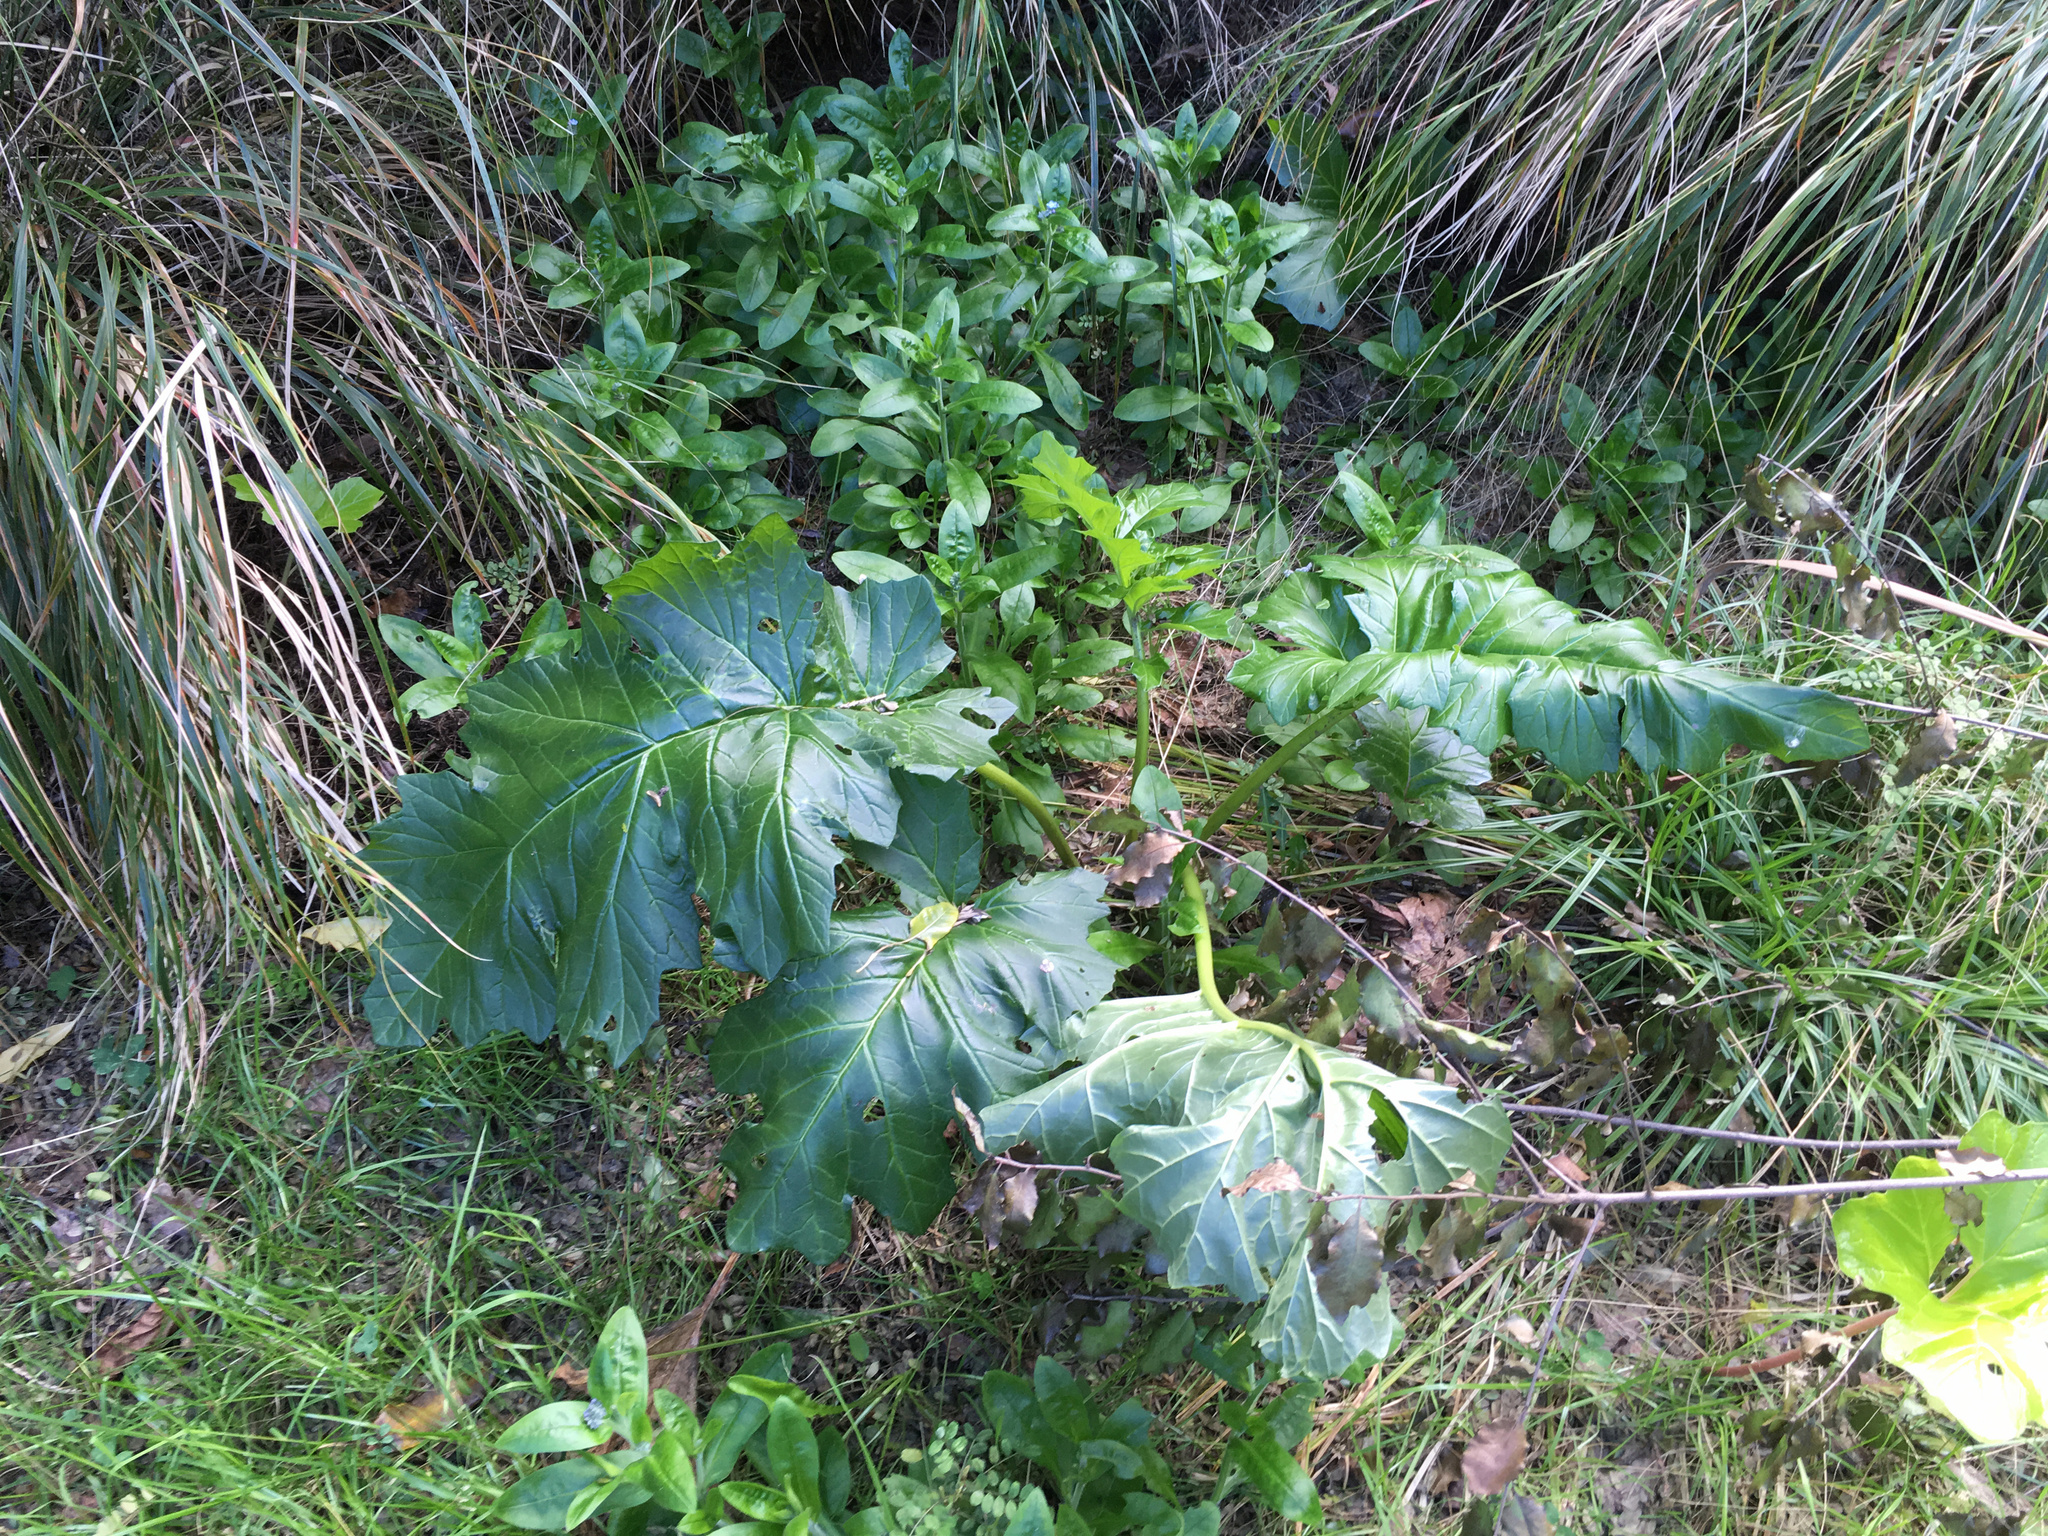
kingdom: Plantae
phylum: Tracheophyta
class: Magnoliopsida
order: Lamiales
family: Acanthaceae
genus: Acanthus
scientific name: Acanthus mollis
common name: Bear's-breech
